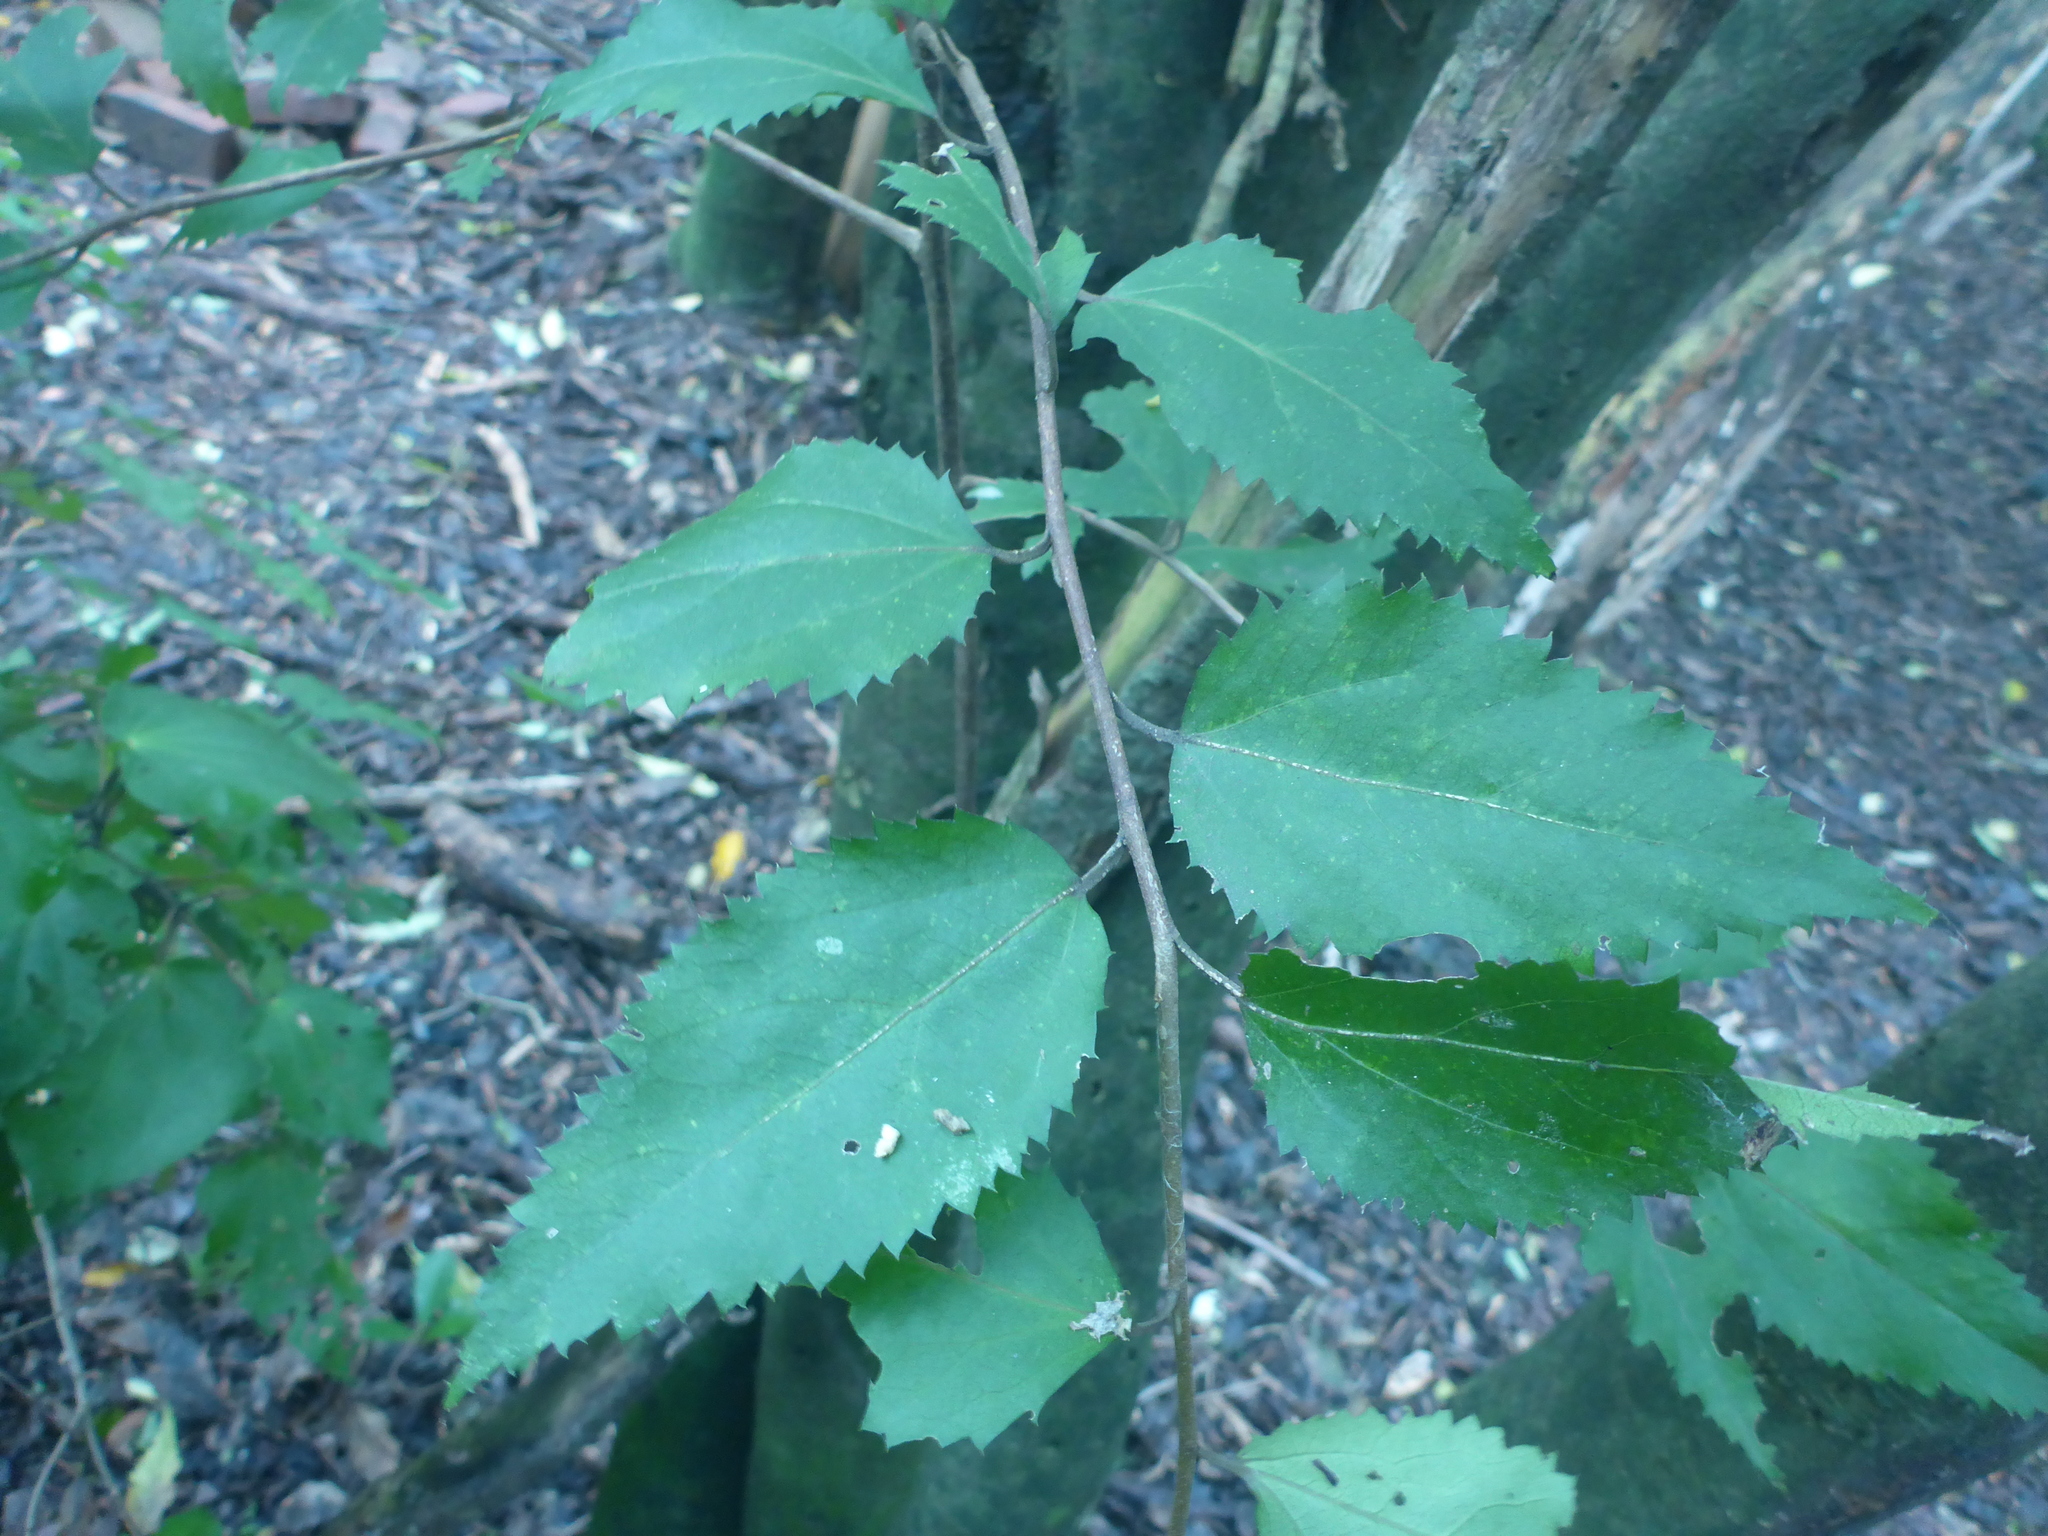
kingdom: Plantae
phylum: Tracheophyta
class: Magnoliopsida
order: Malvales
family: Malvaceae
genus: Hoheria
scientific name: Hoheria populnea
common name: Lacebark
